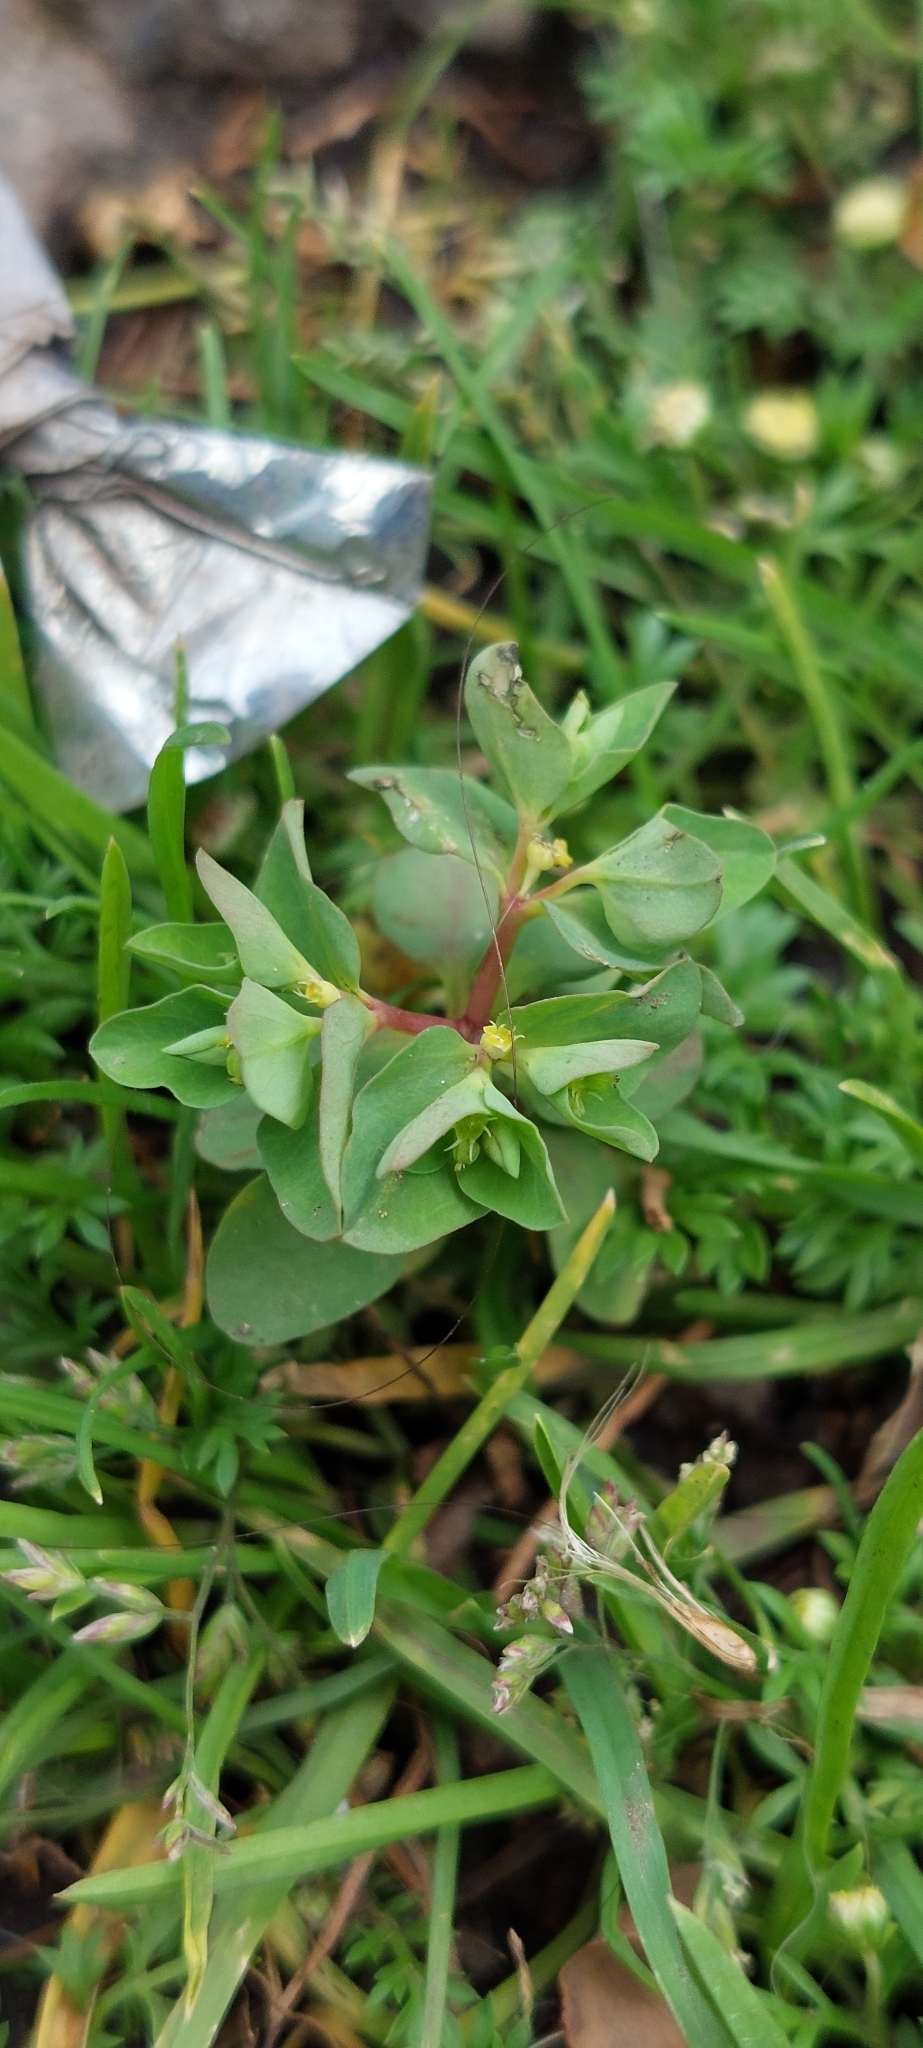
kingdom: Plantae
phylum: Tracheophyta
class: Magnoliopsida
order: Malpighiales
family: Euphorbiaceae
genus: Euphorbia
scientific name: Euphorbia peplus
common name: Petty spurge
